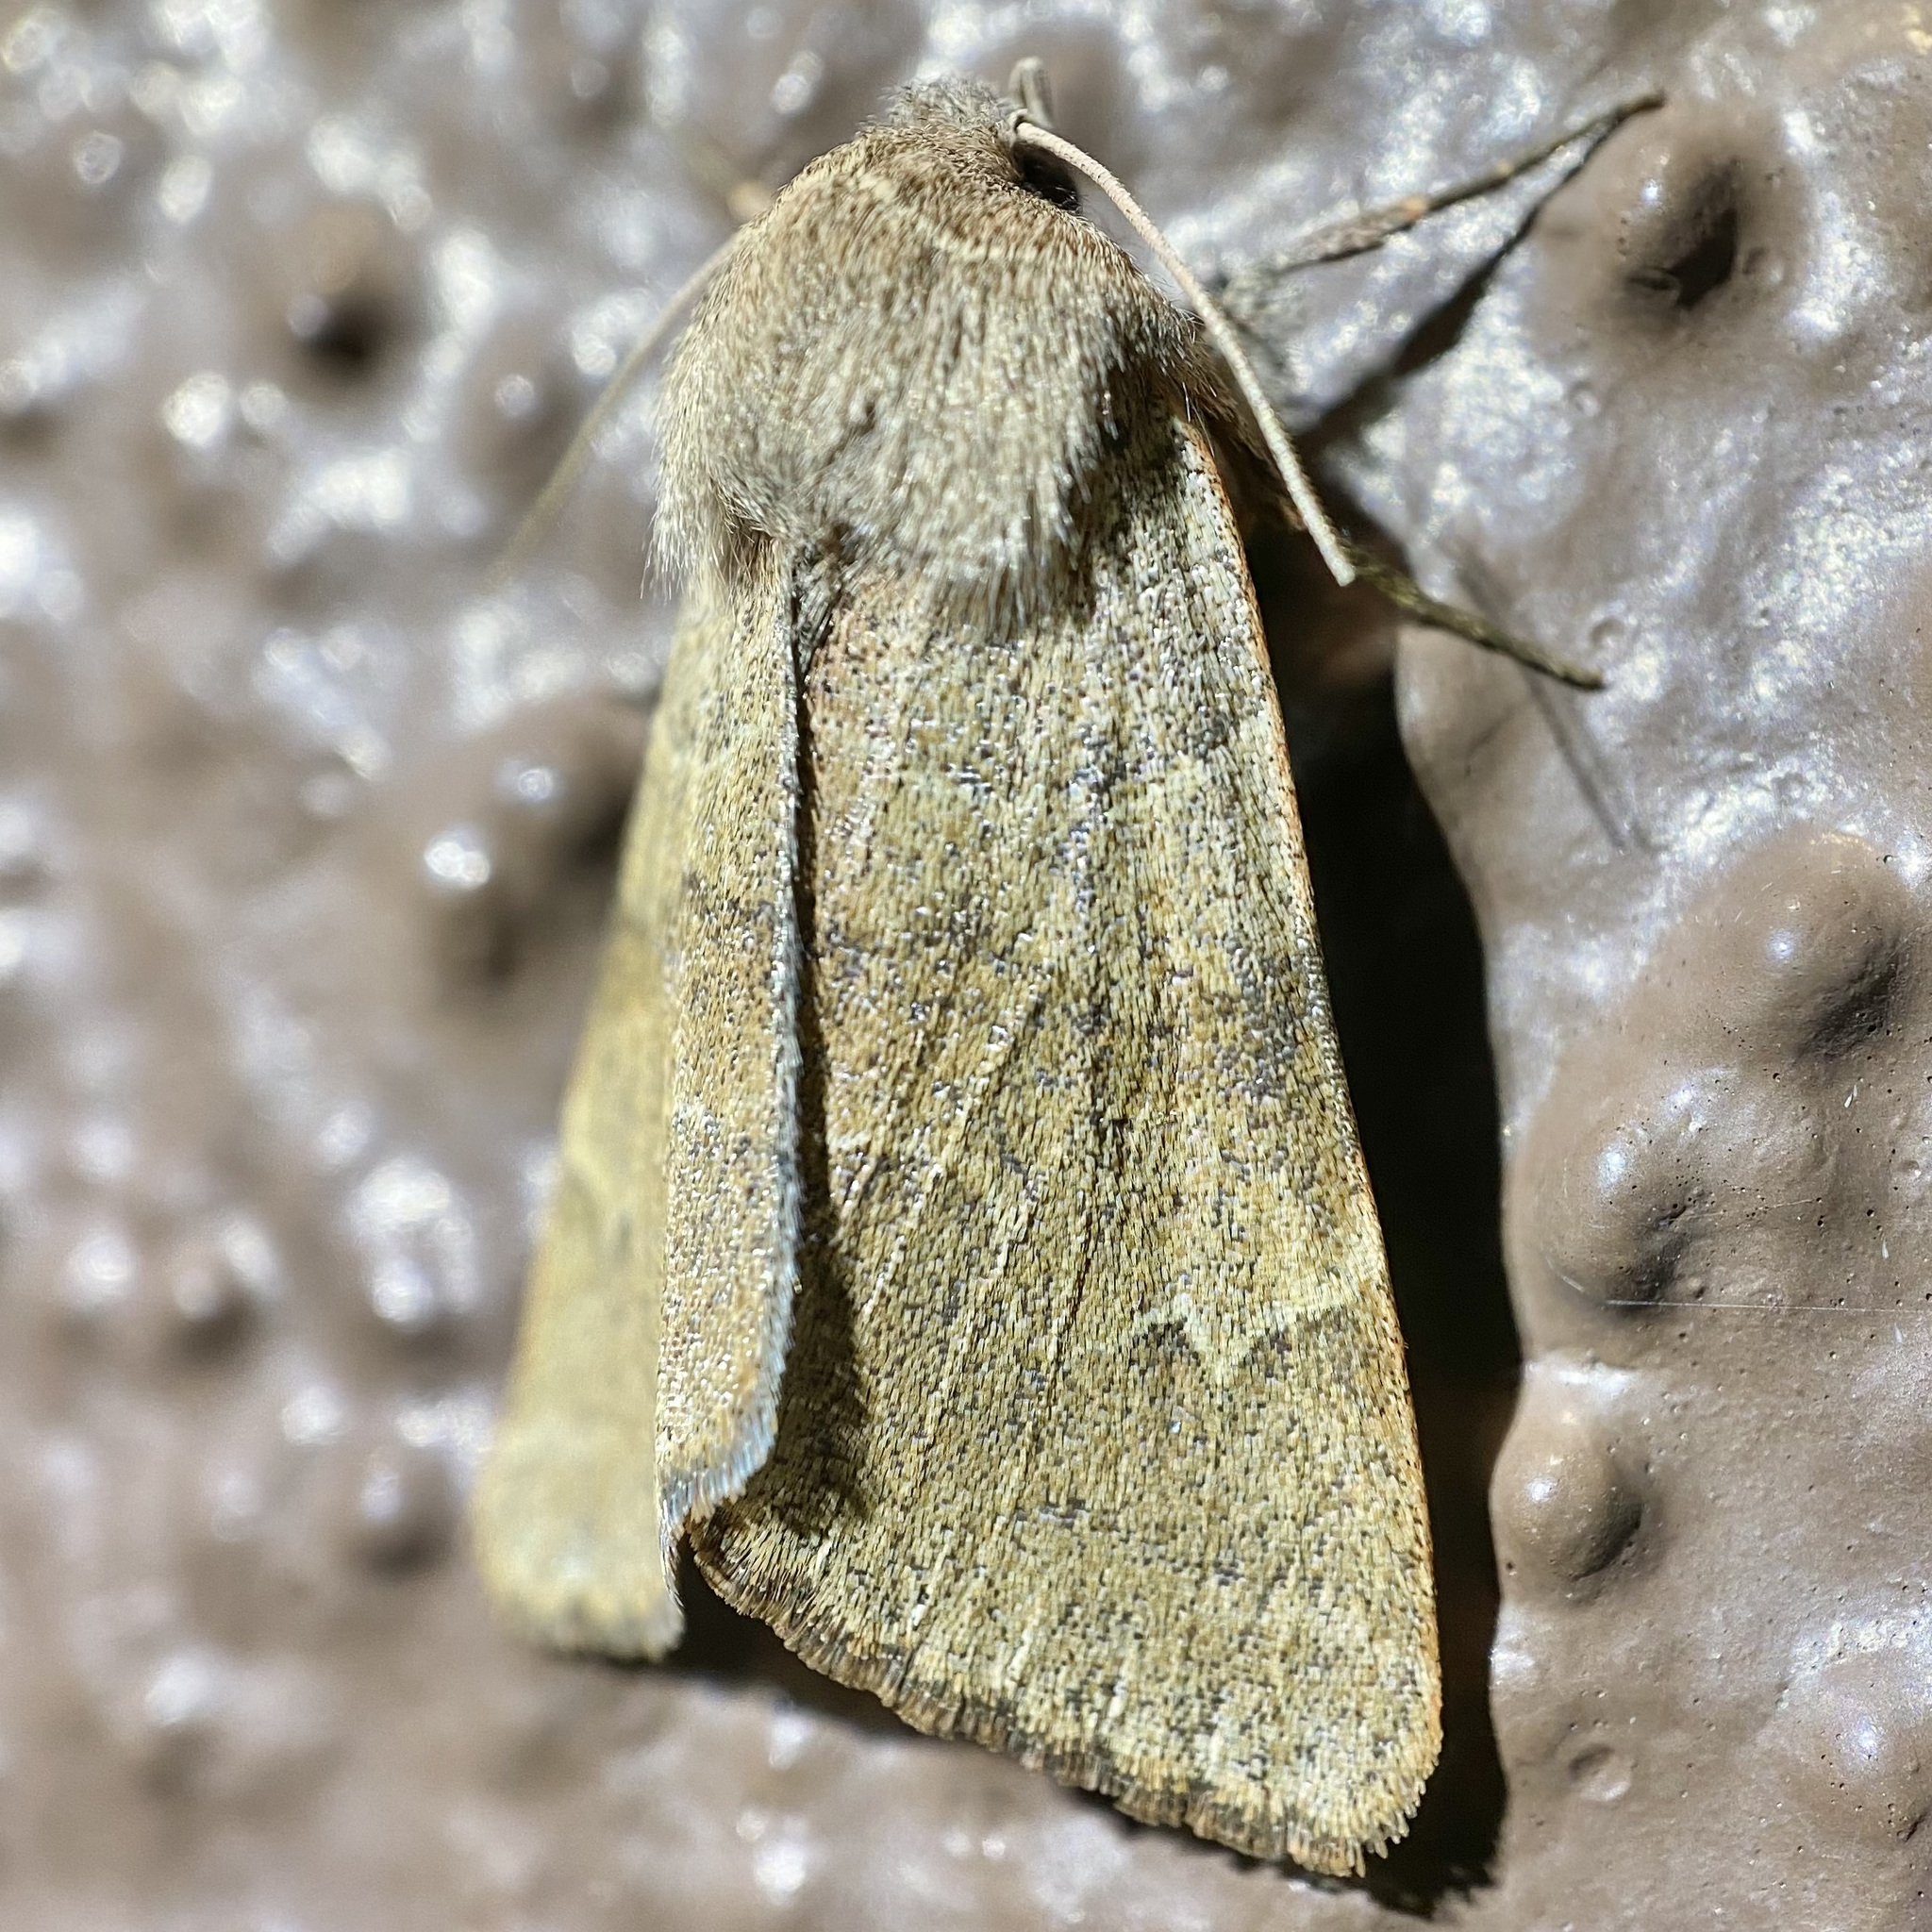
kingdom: Animalia
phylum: Arthropoda
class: Insecta
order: Lepidoptera
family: Erebidae
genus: Ulosyneda
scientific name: Ulosyneda valens
